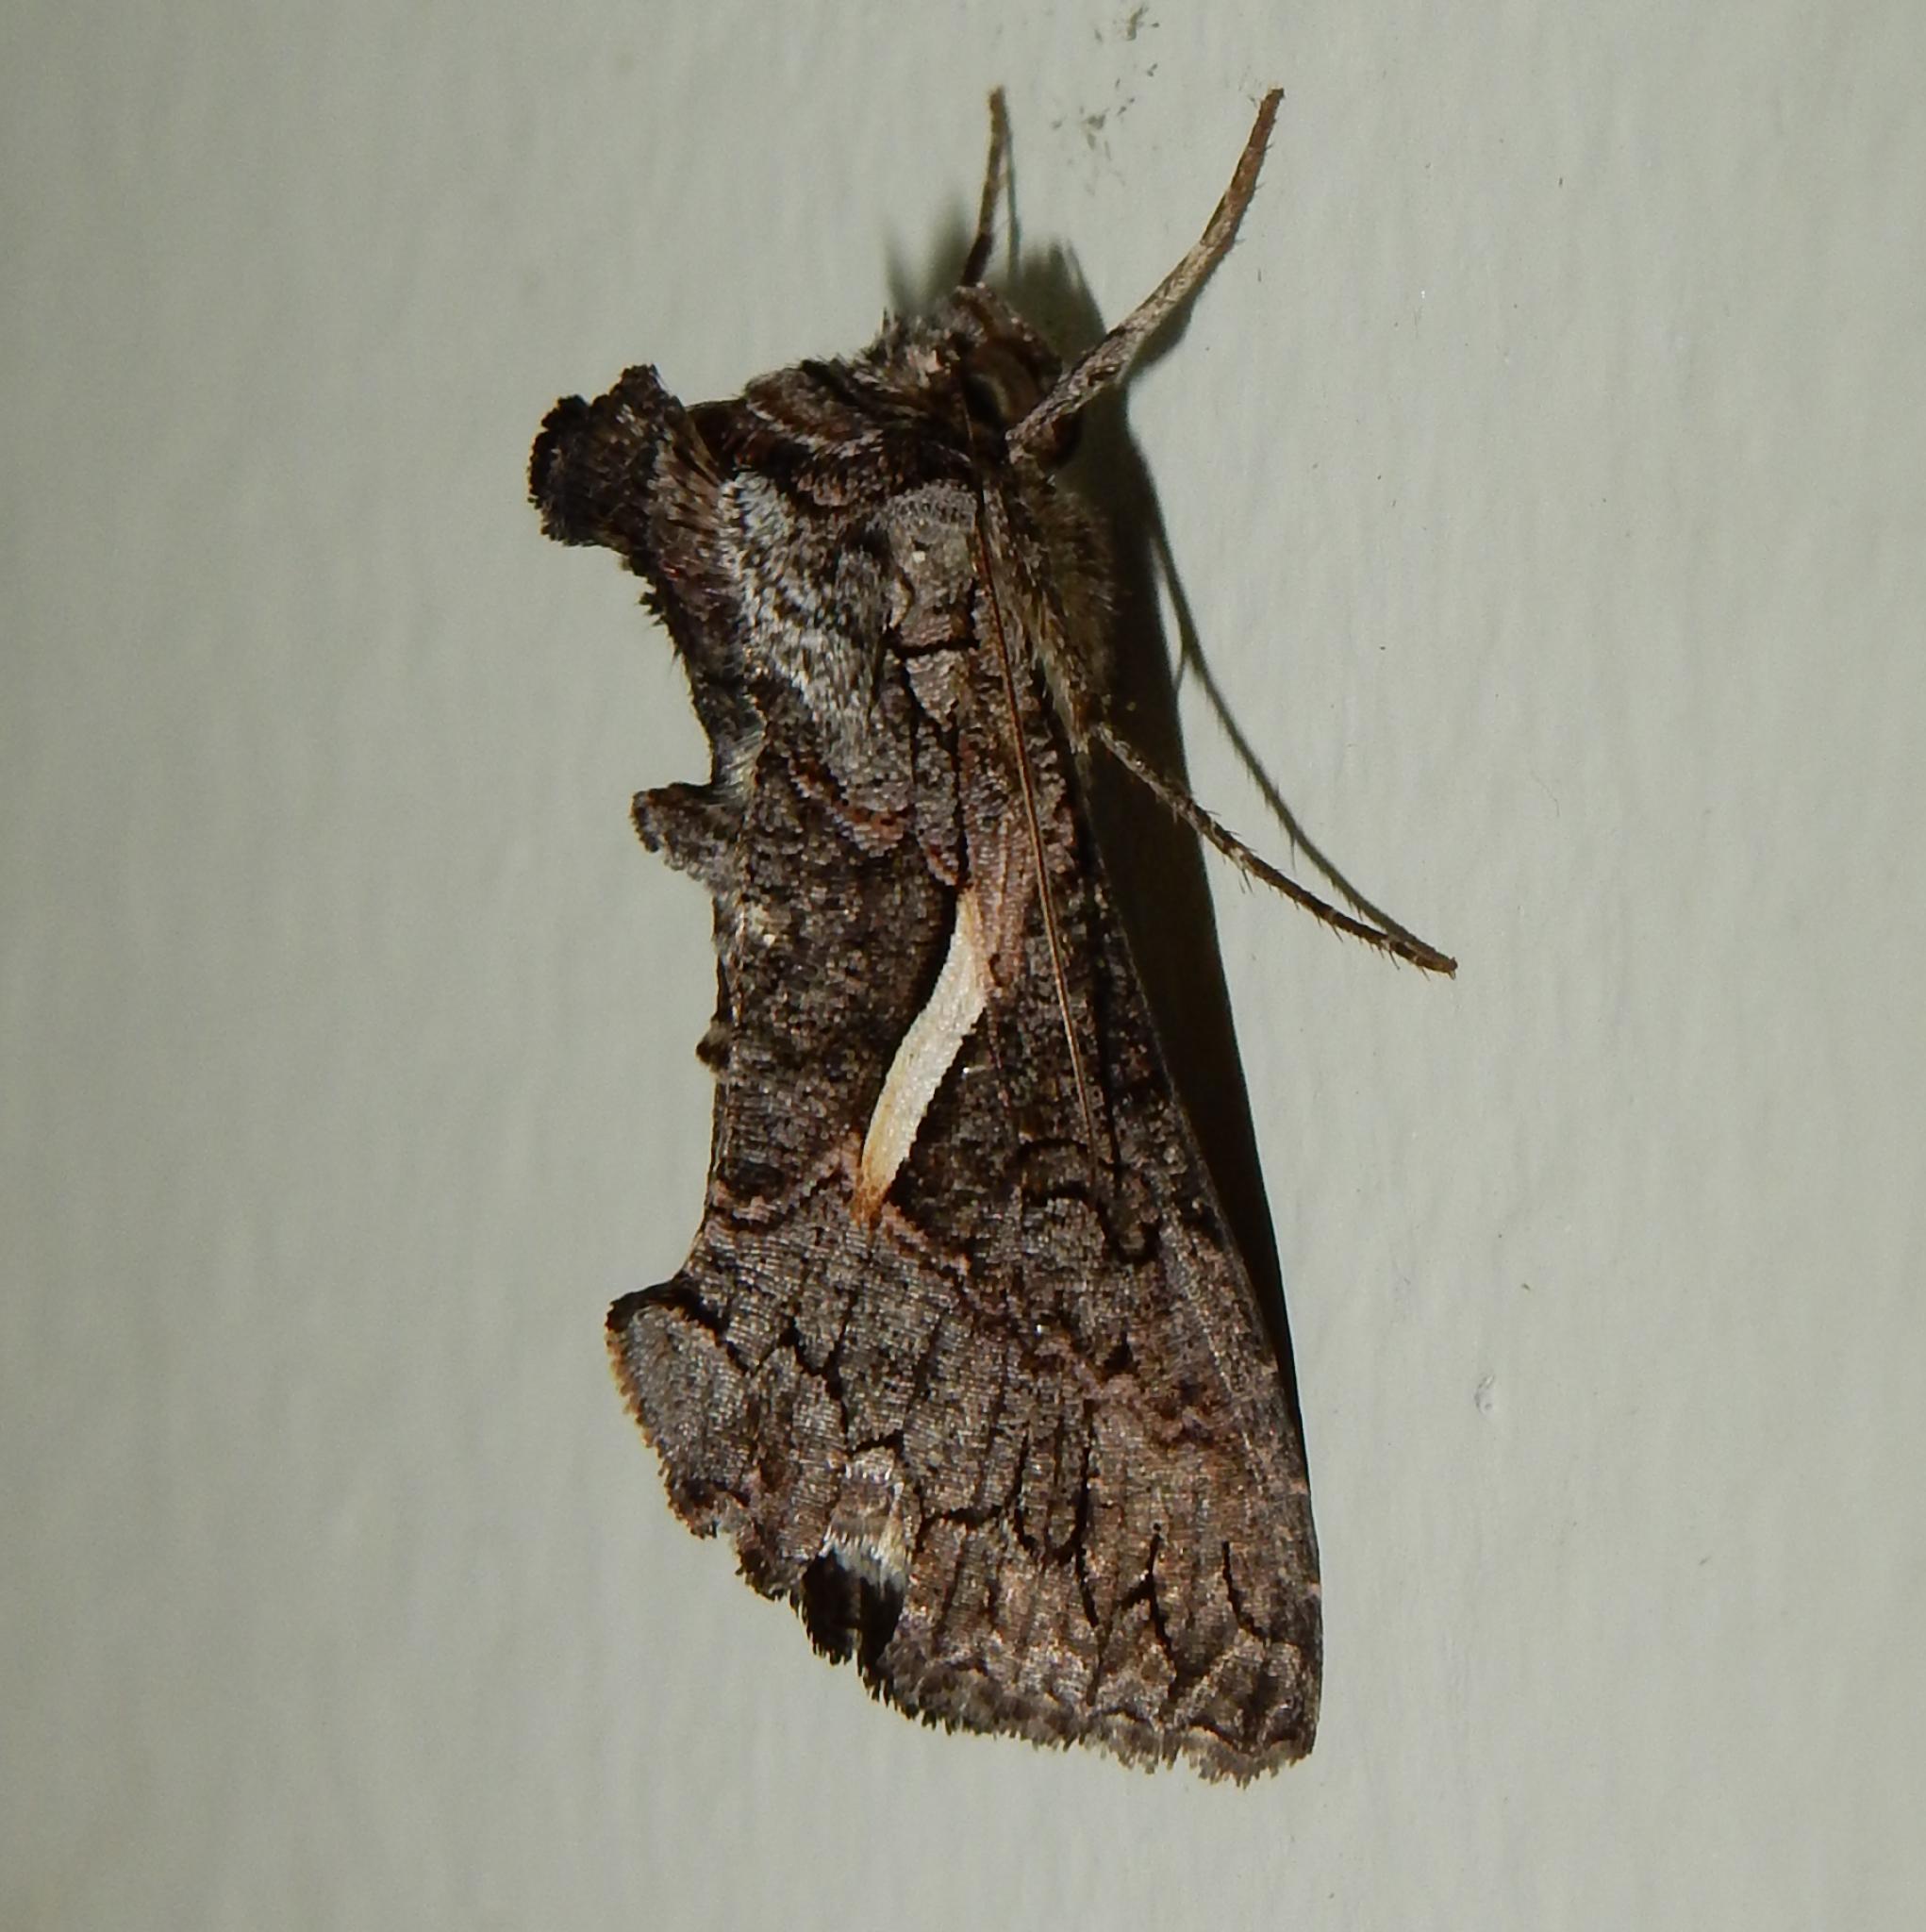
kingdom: Animalia
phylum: Arthropoda
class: Insecta
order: Lepidoptera
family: Noctuidae
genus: Vittaplusia
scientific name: Vittaplusia vittata
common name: Streaked plusia
